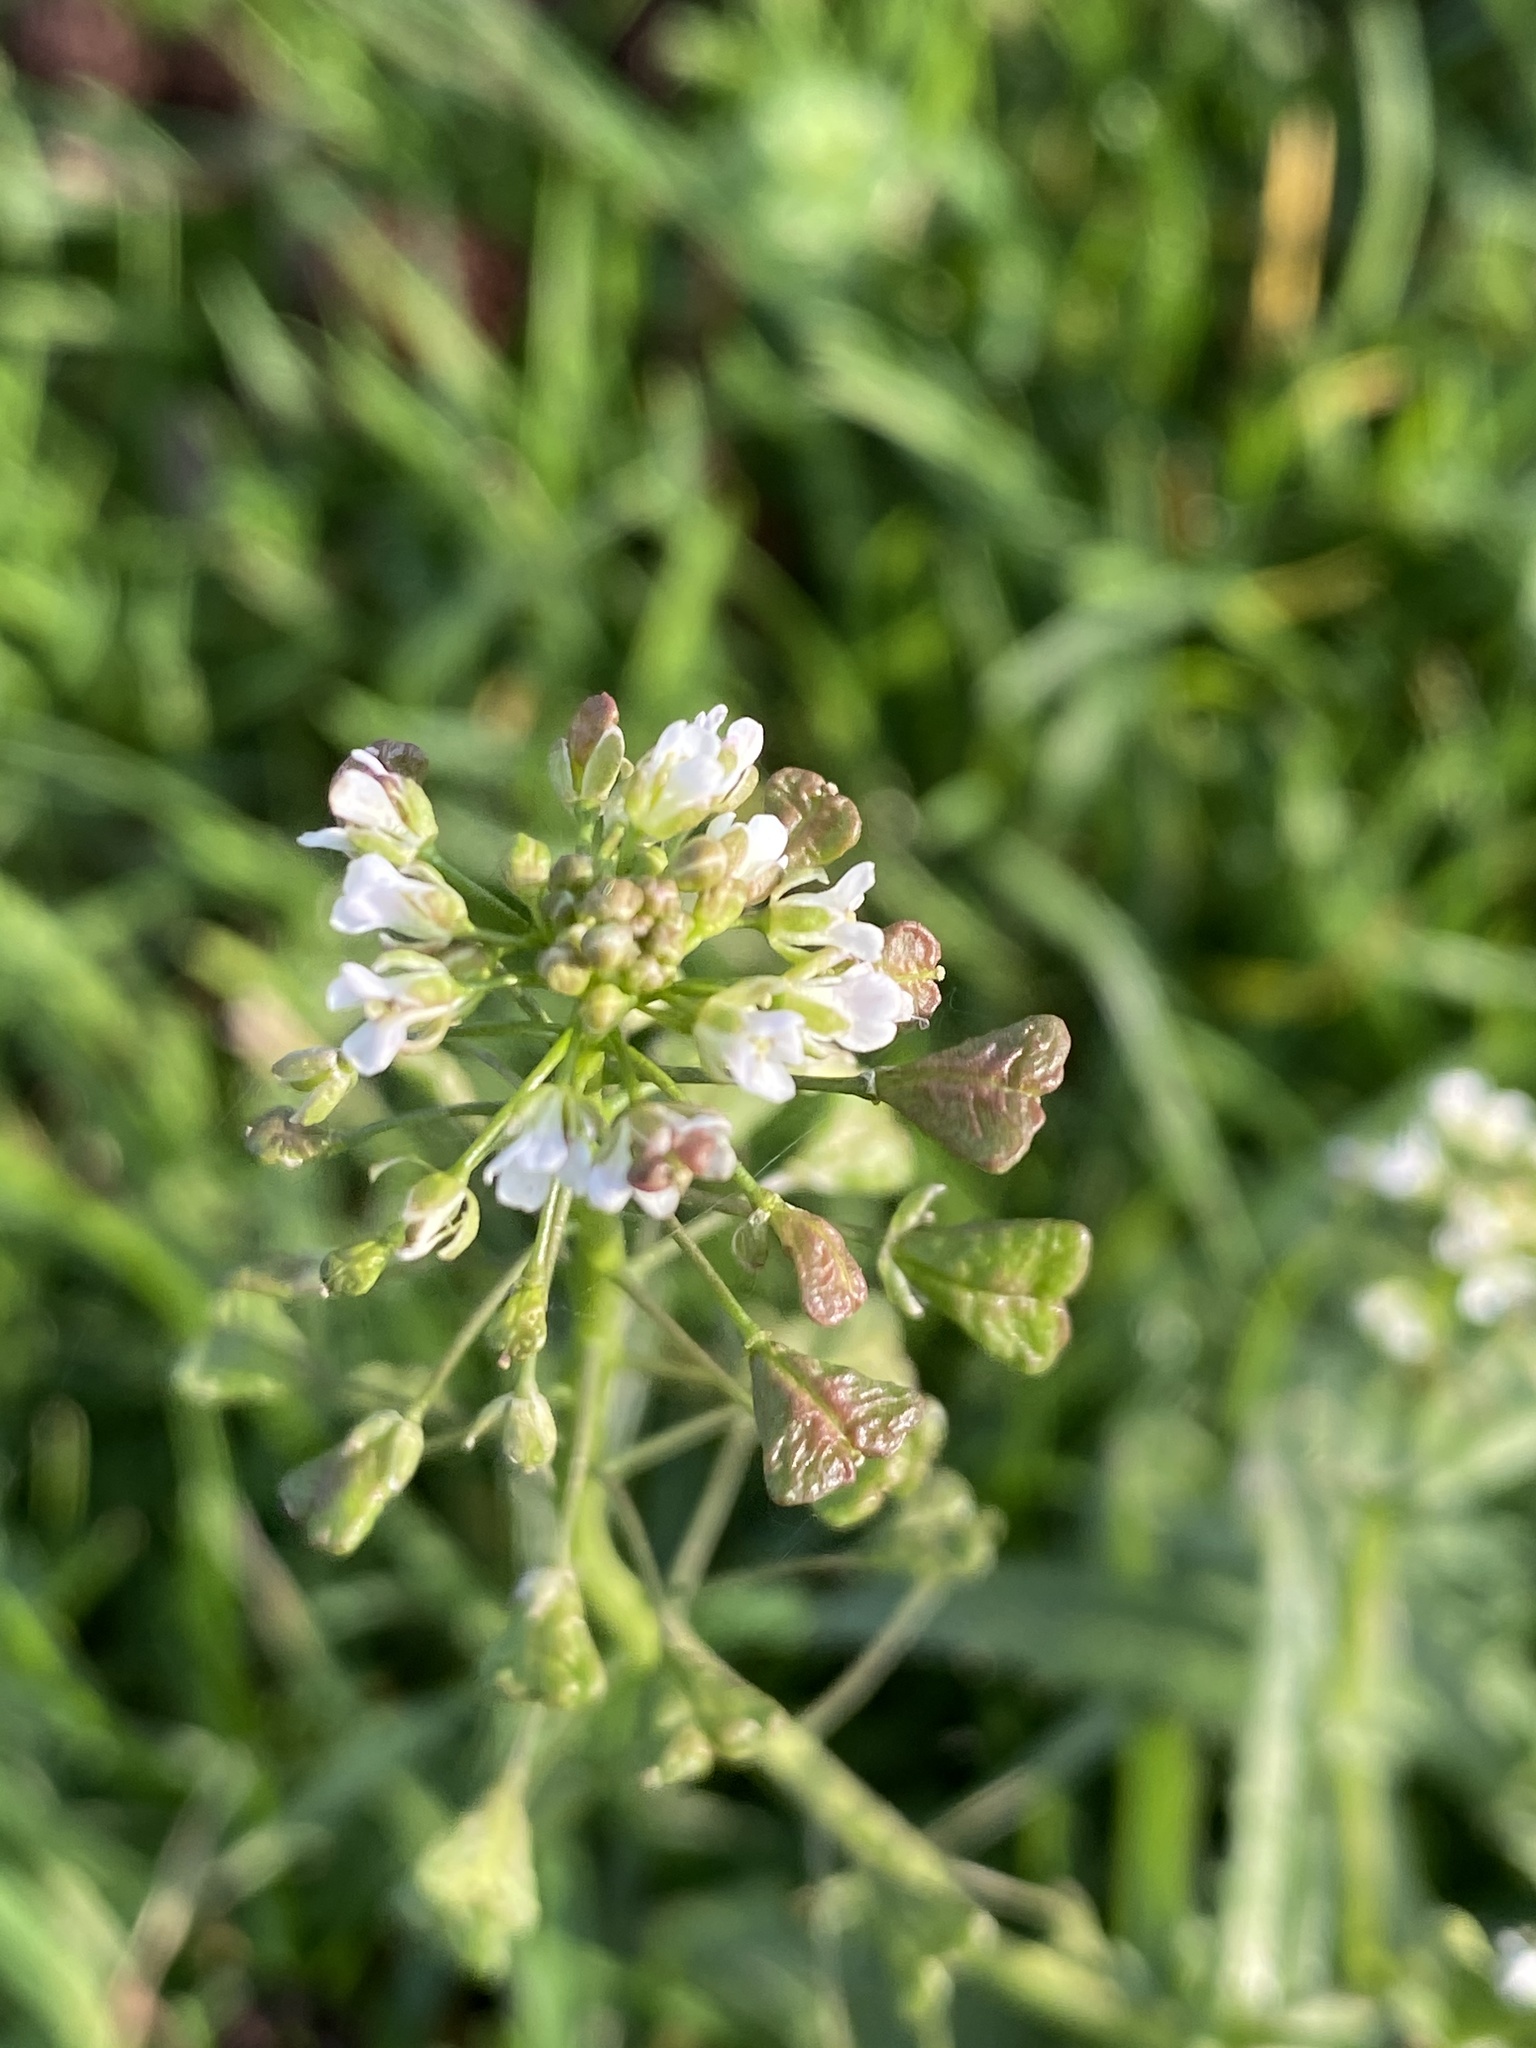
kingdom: Plantae
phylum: Tracheophyta
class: Magnoliopsida
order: Brassicales
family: Brassicaceae
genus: Capsella
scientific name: Capsella bursa-pastoris
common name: Shepherd's purse
